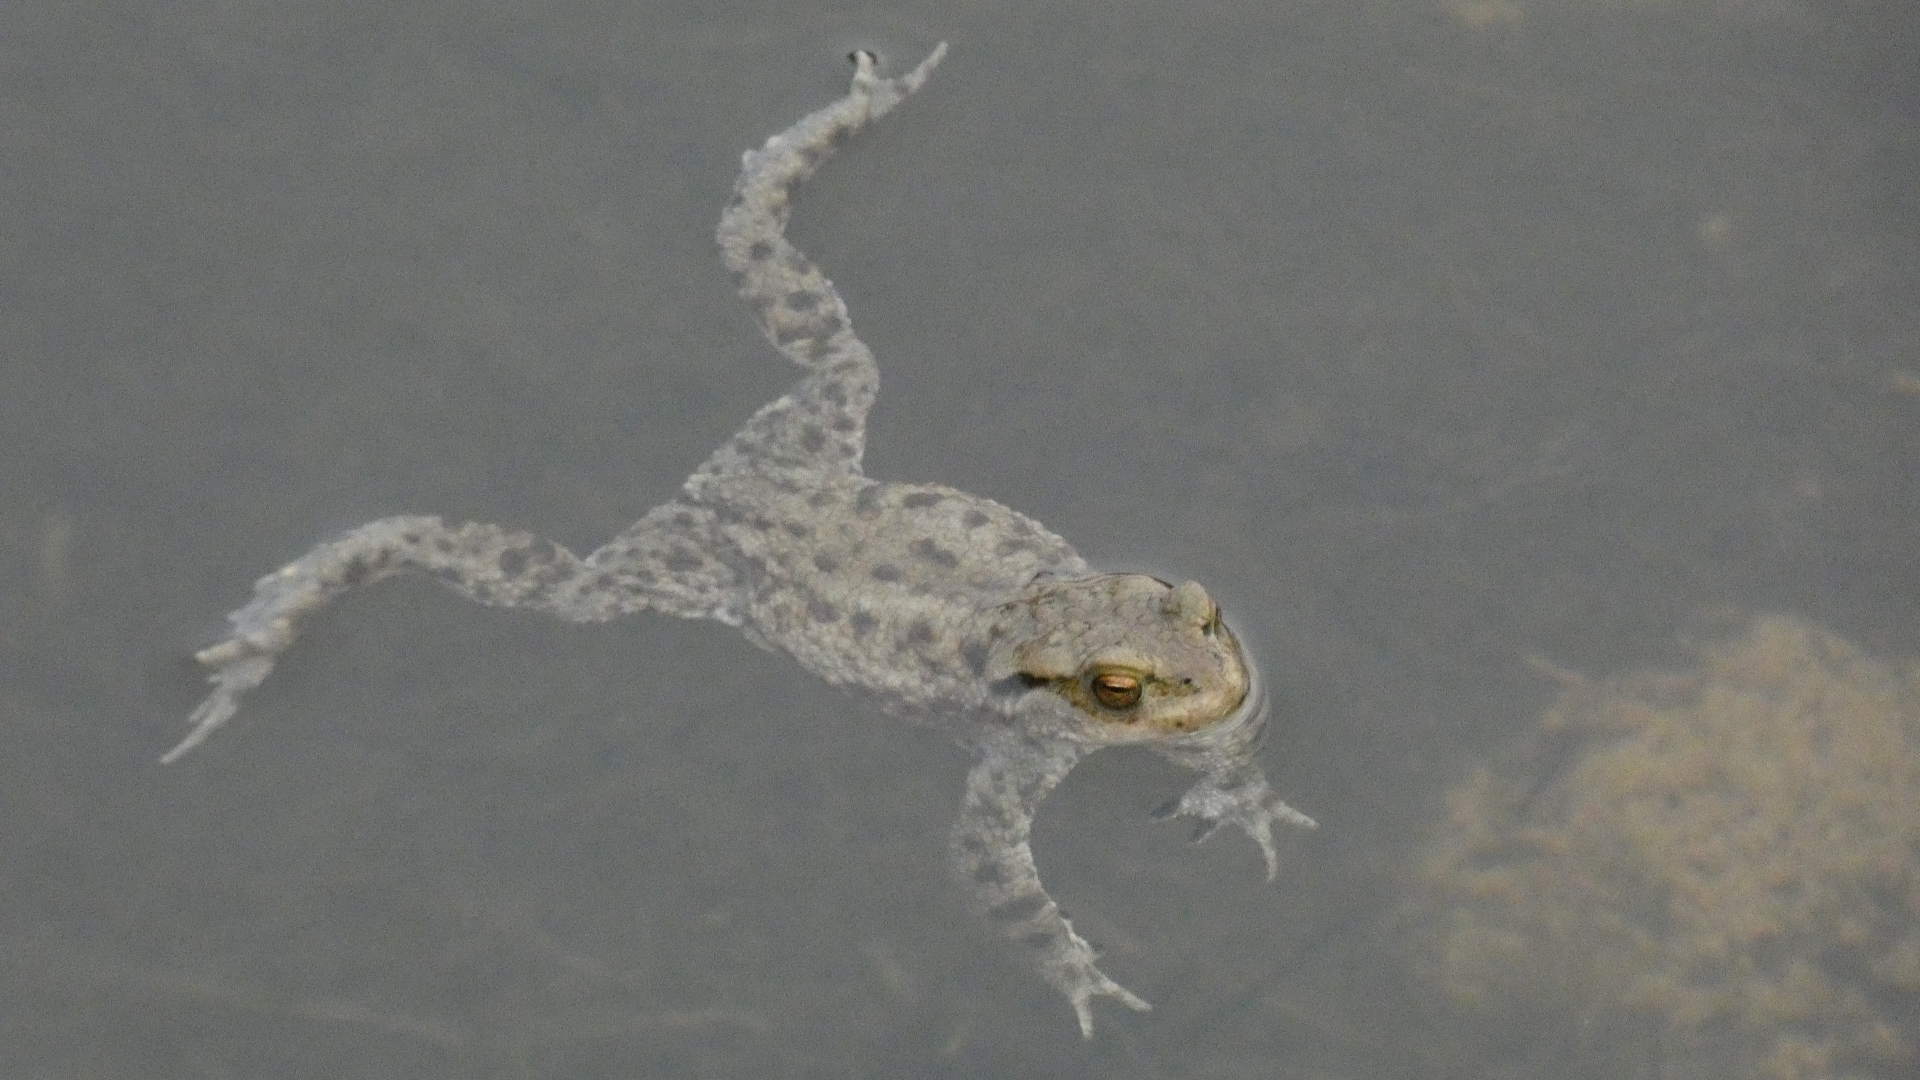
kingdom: Animalia
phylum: Chordata
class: Amphibia
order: Anura
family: Bufonidae
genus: Bufo
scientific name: Bufo bufo
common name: Common toad
